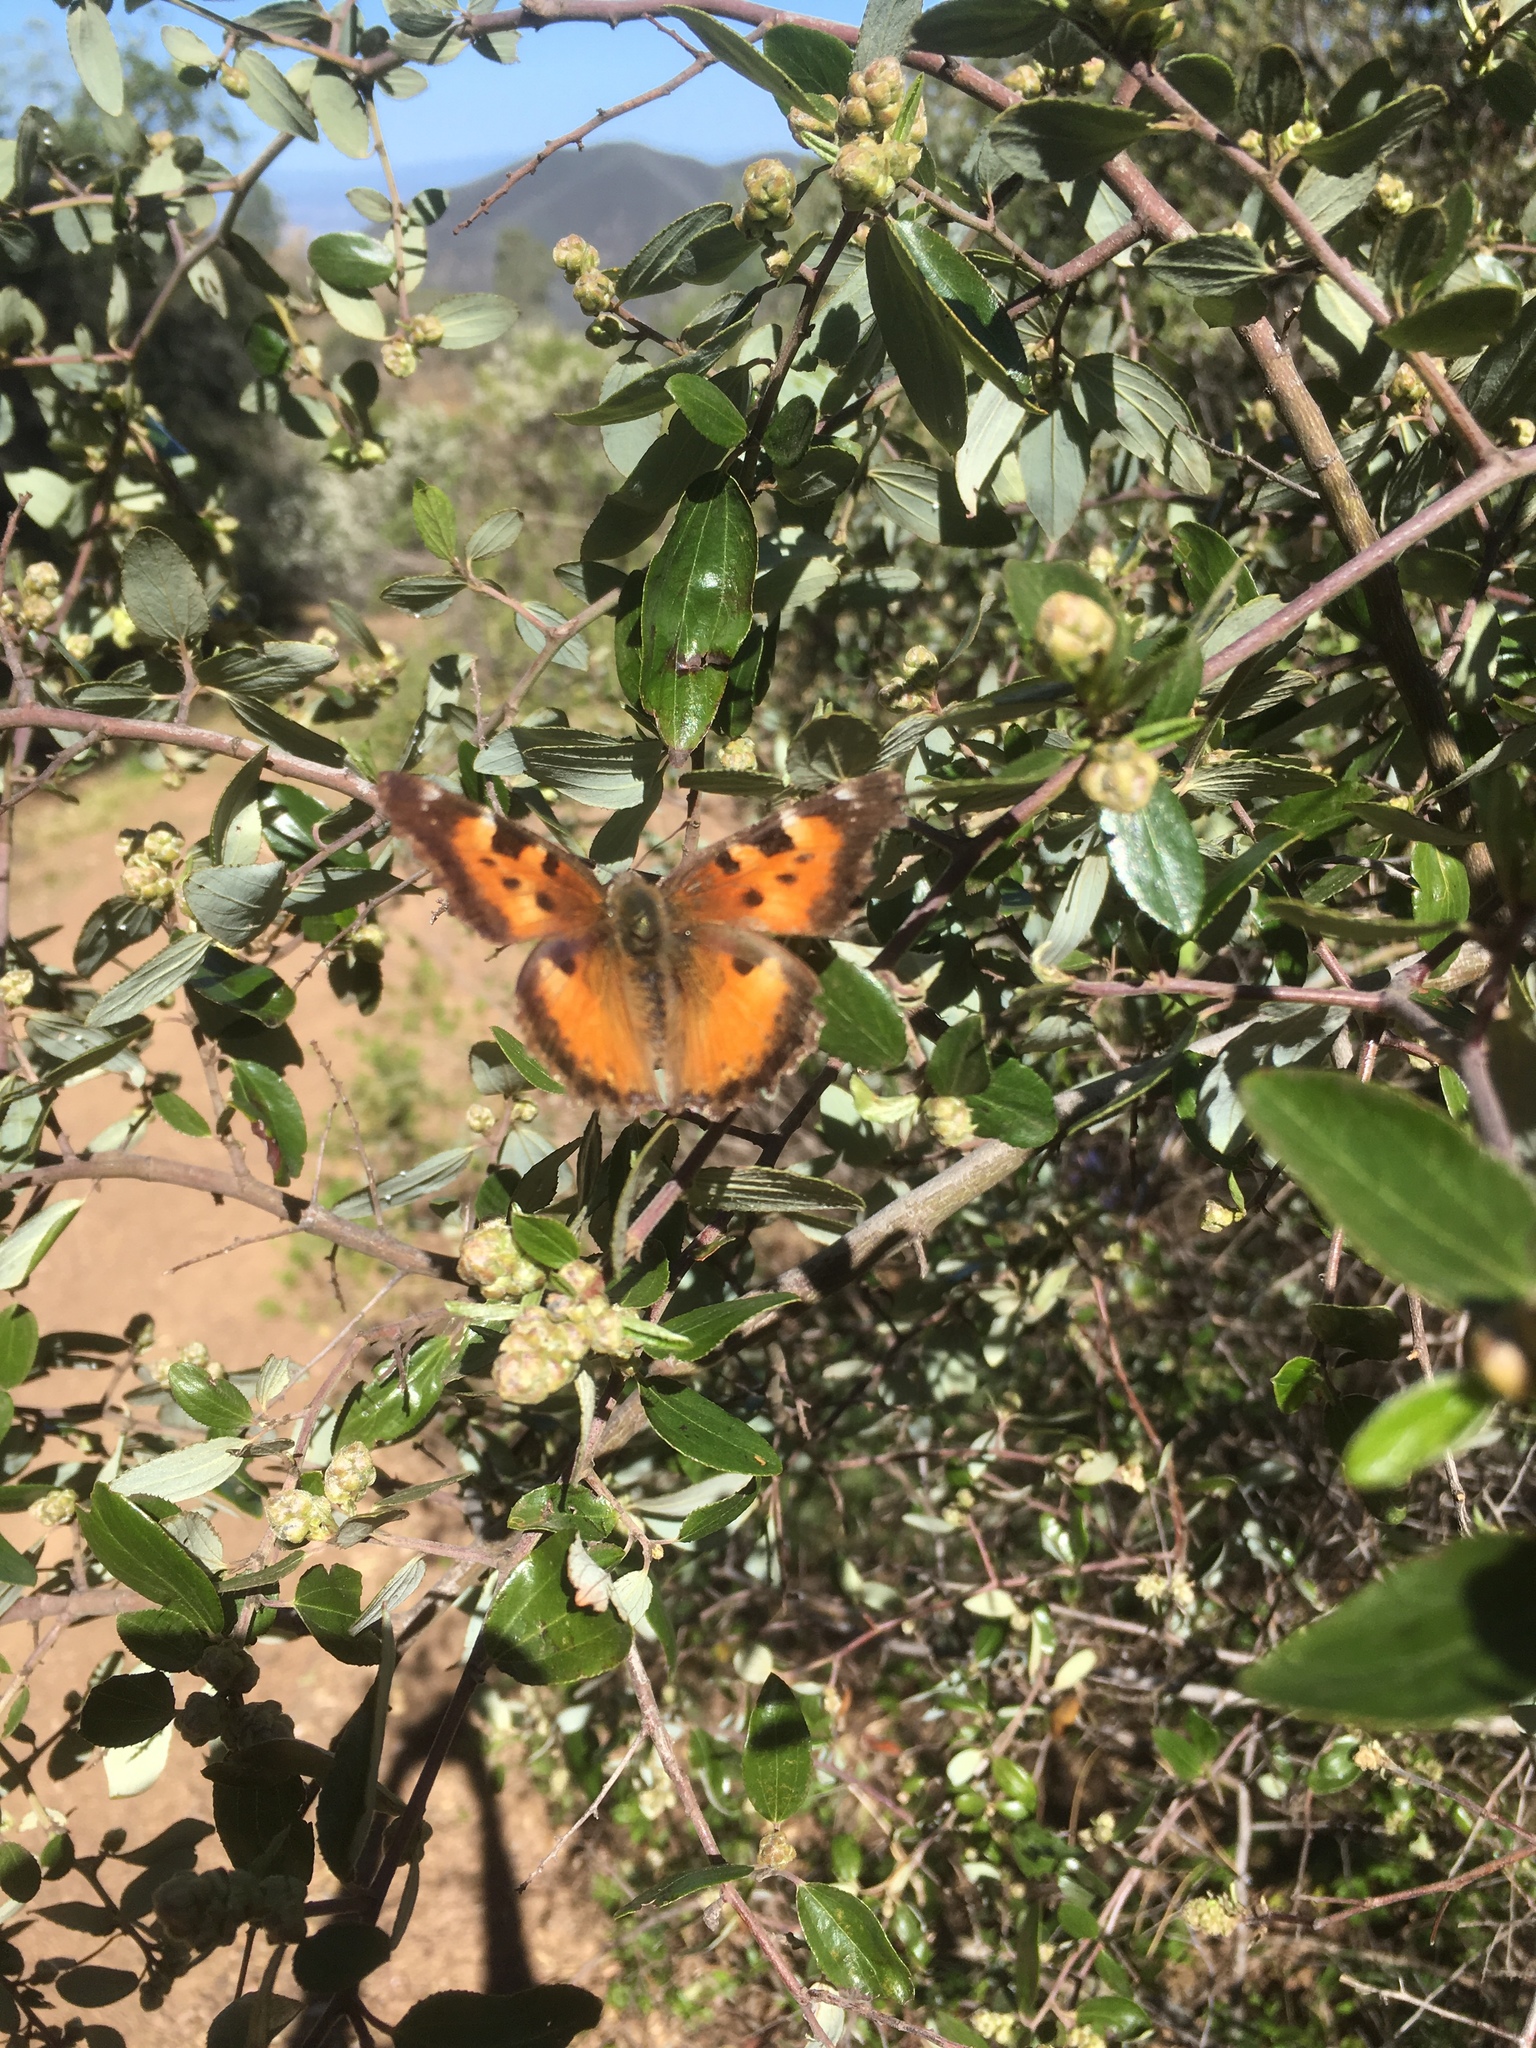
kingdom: Animalia
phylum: Arthropoda
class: Insecta
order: Lepidoptera
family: Nymphalidae
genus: Nymphalis
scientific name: Nymphalis californica
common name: California tortoiseshell
